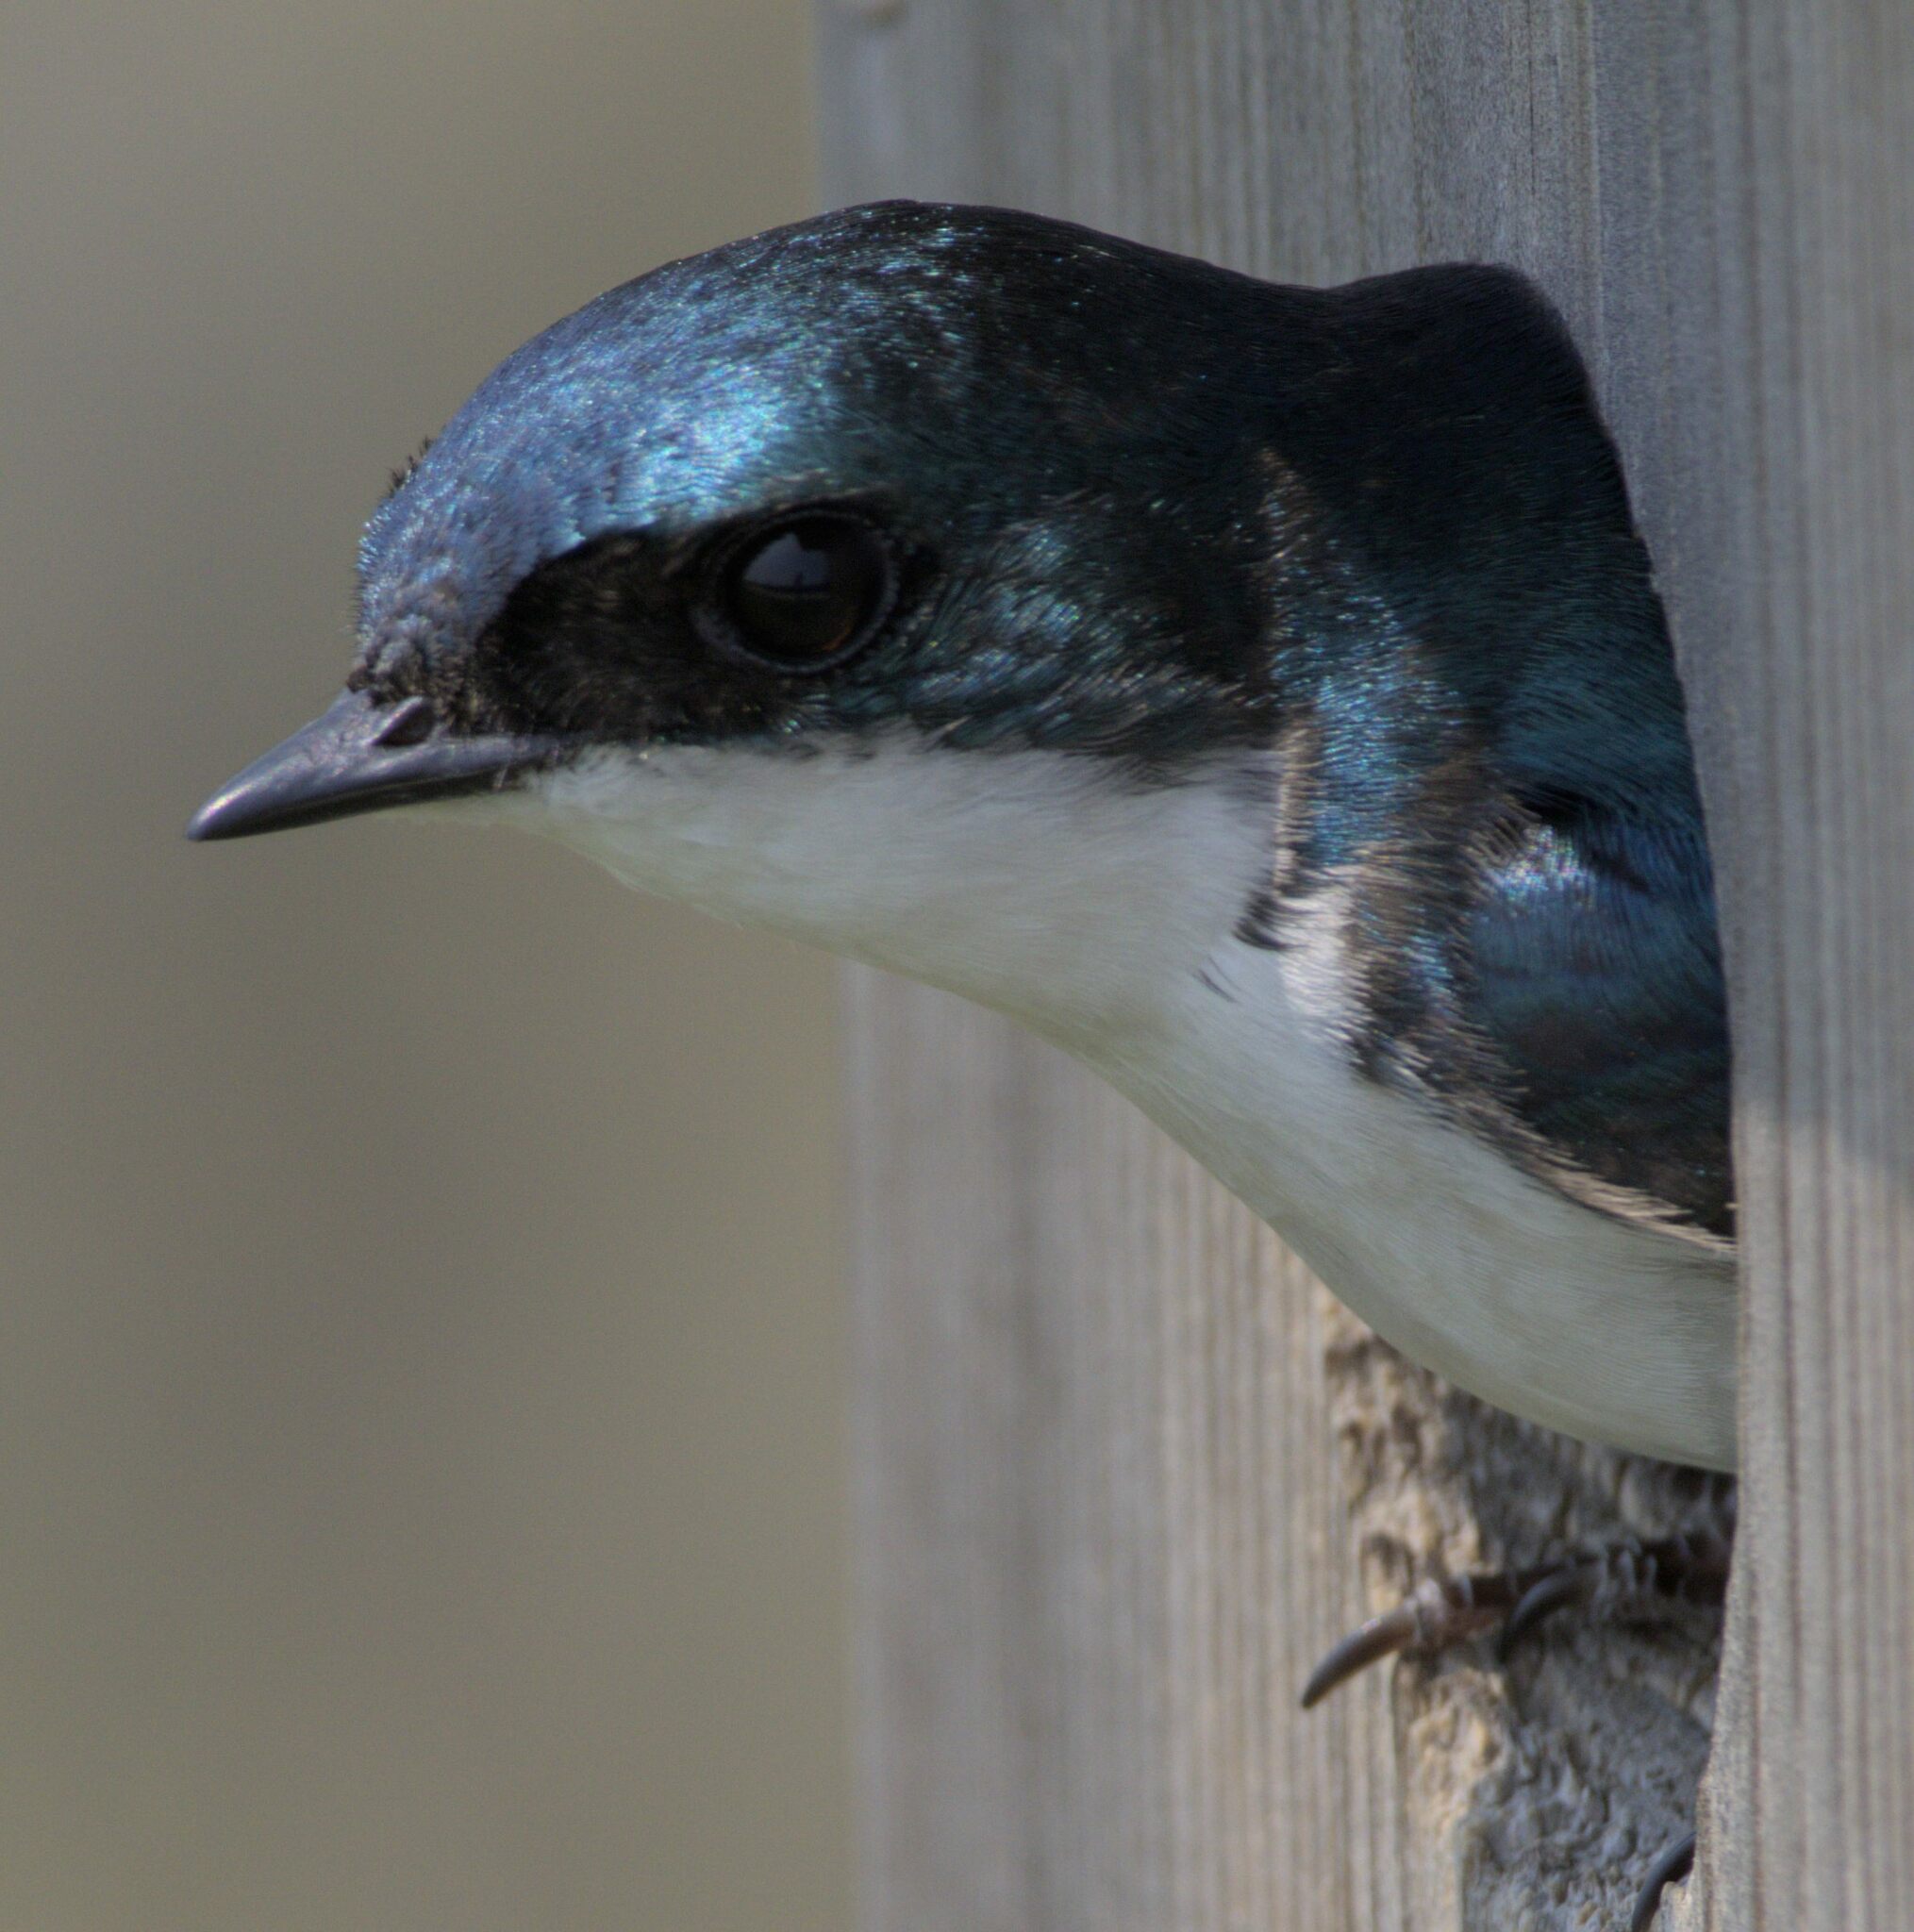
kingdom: Animalia
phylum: Chordata
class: Aves
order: Passeriformes
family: Hirundinidae
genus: Tachycineta
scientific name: Tachycineta bicolor
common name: Tree swallow
